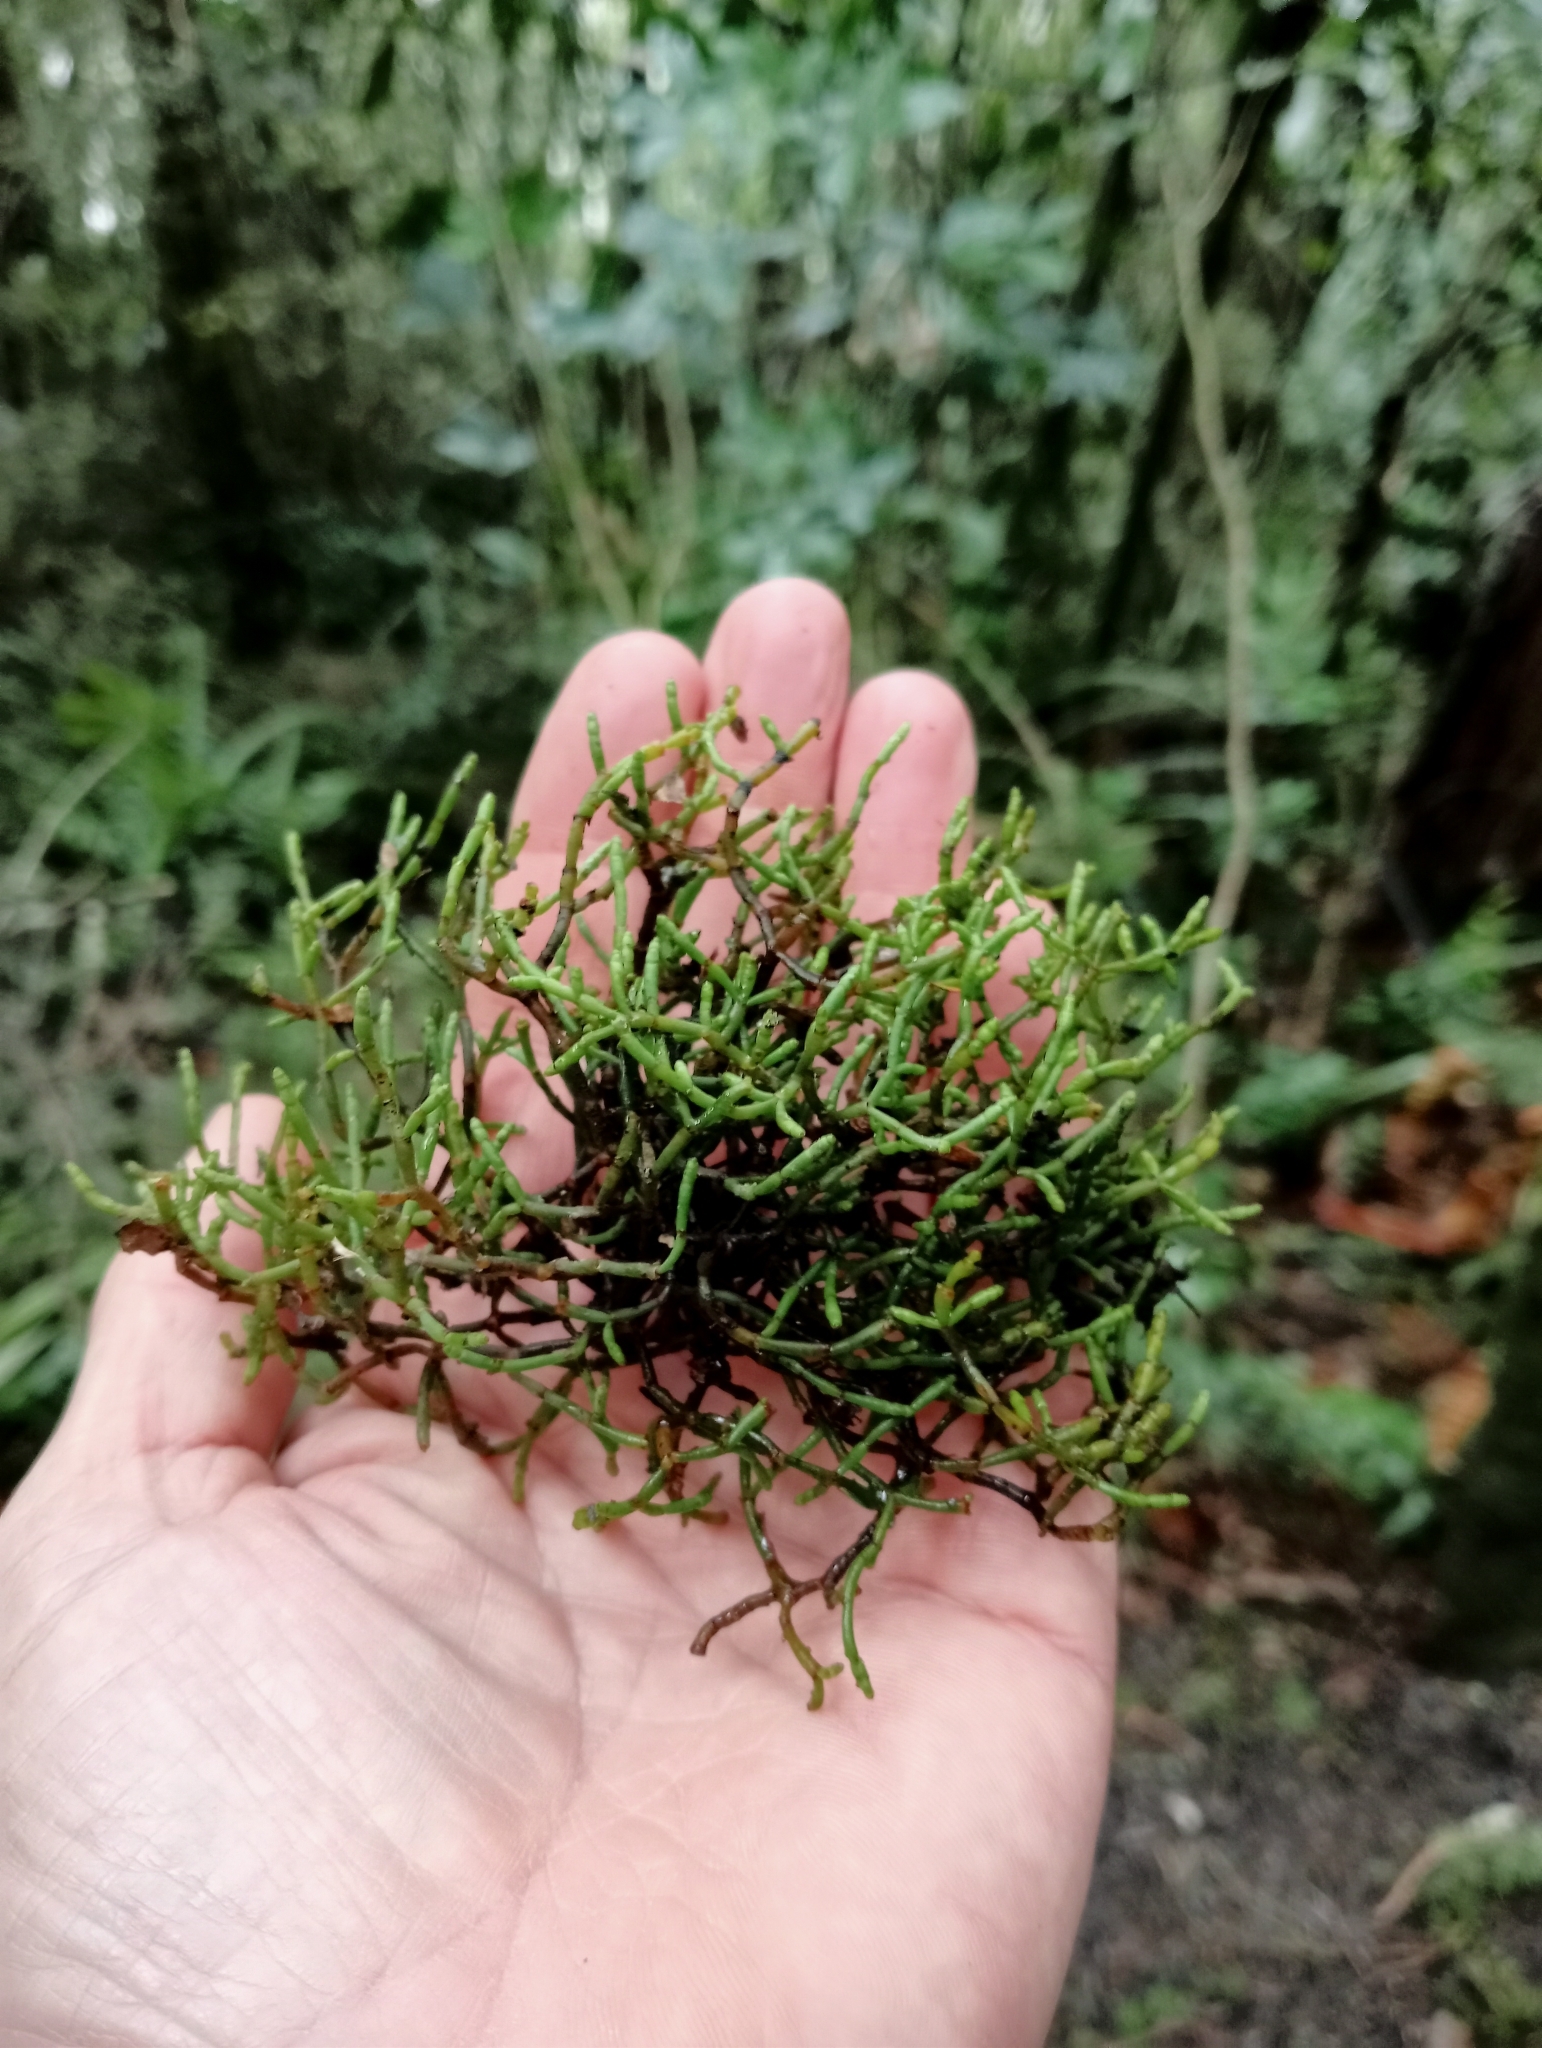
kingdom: Plantae
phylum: Tracheophyta
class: Magnoliopsida
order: Santalales
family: Viscaceae
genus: Korthalsella
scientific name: Korthalsella salicornioides
